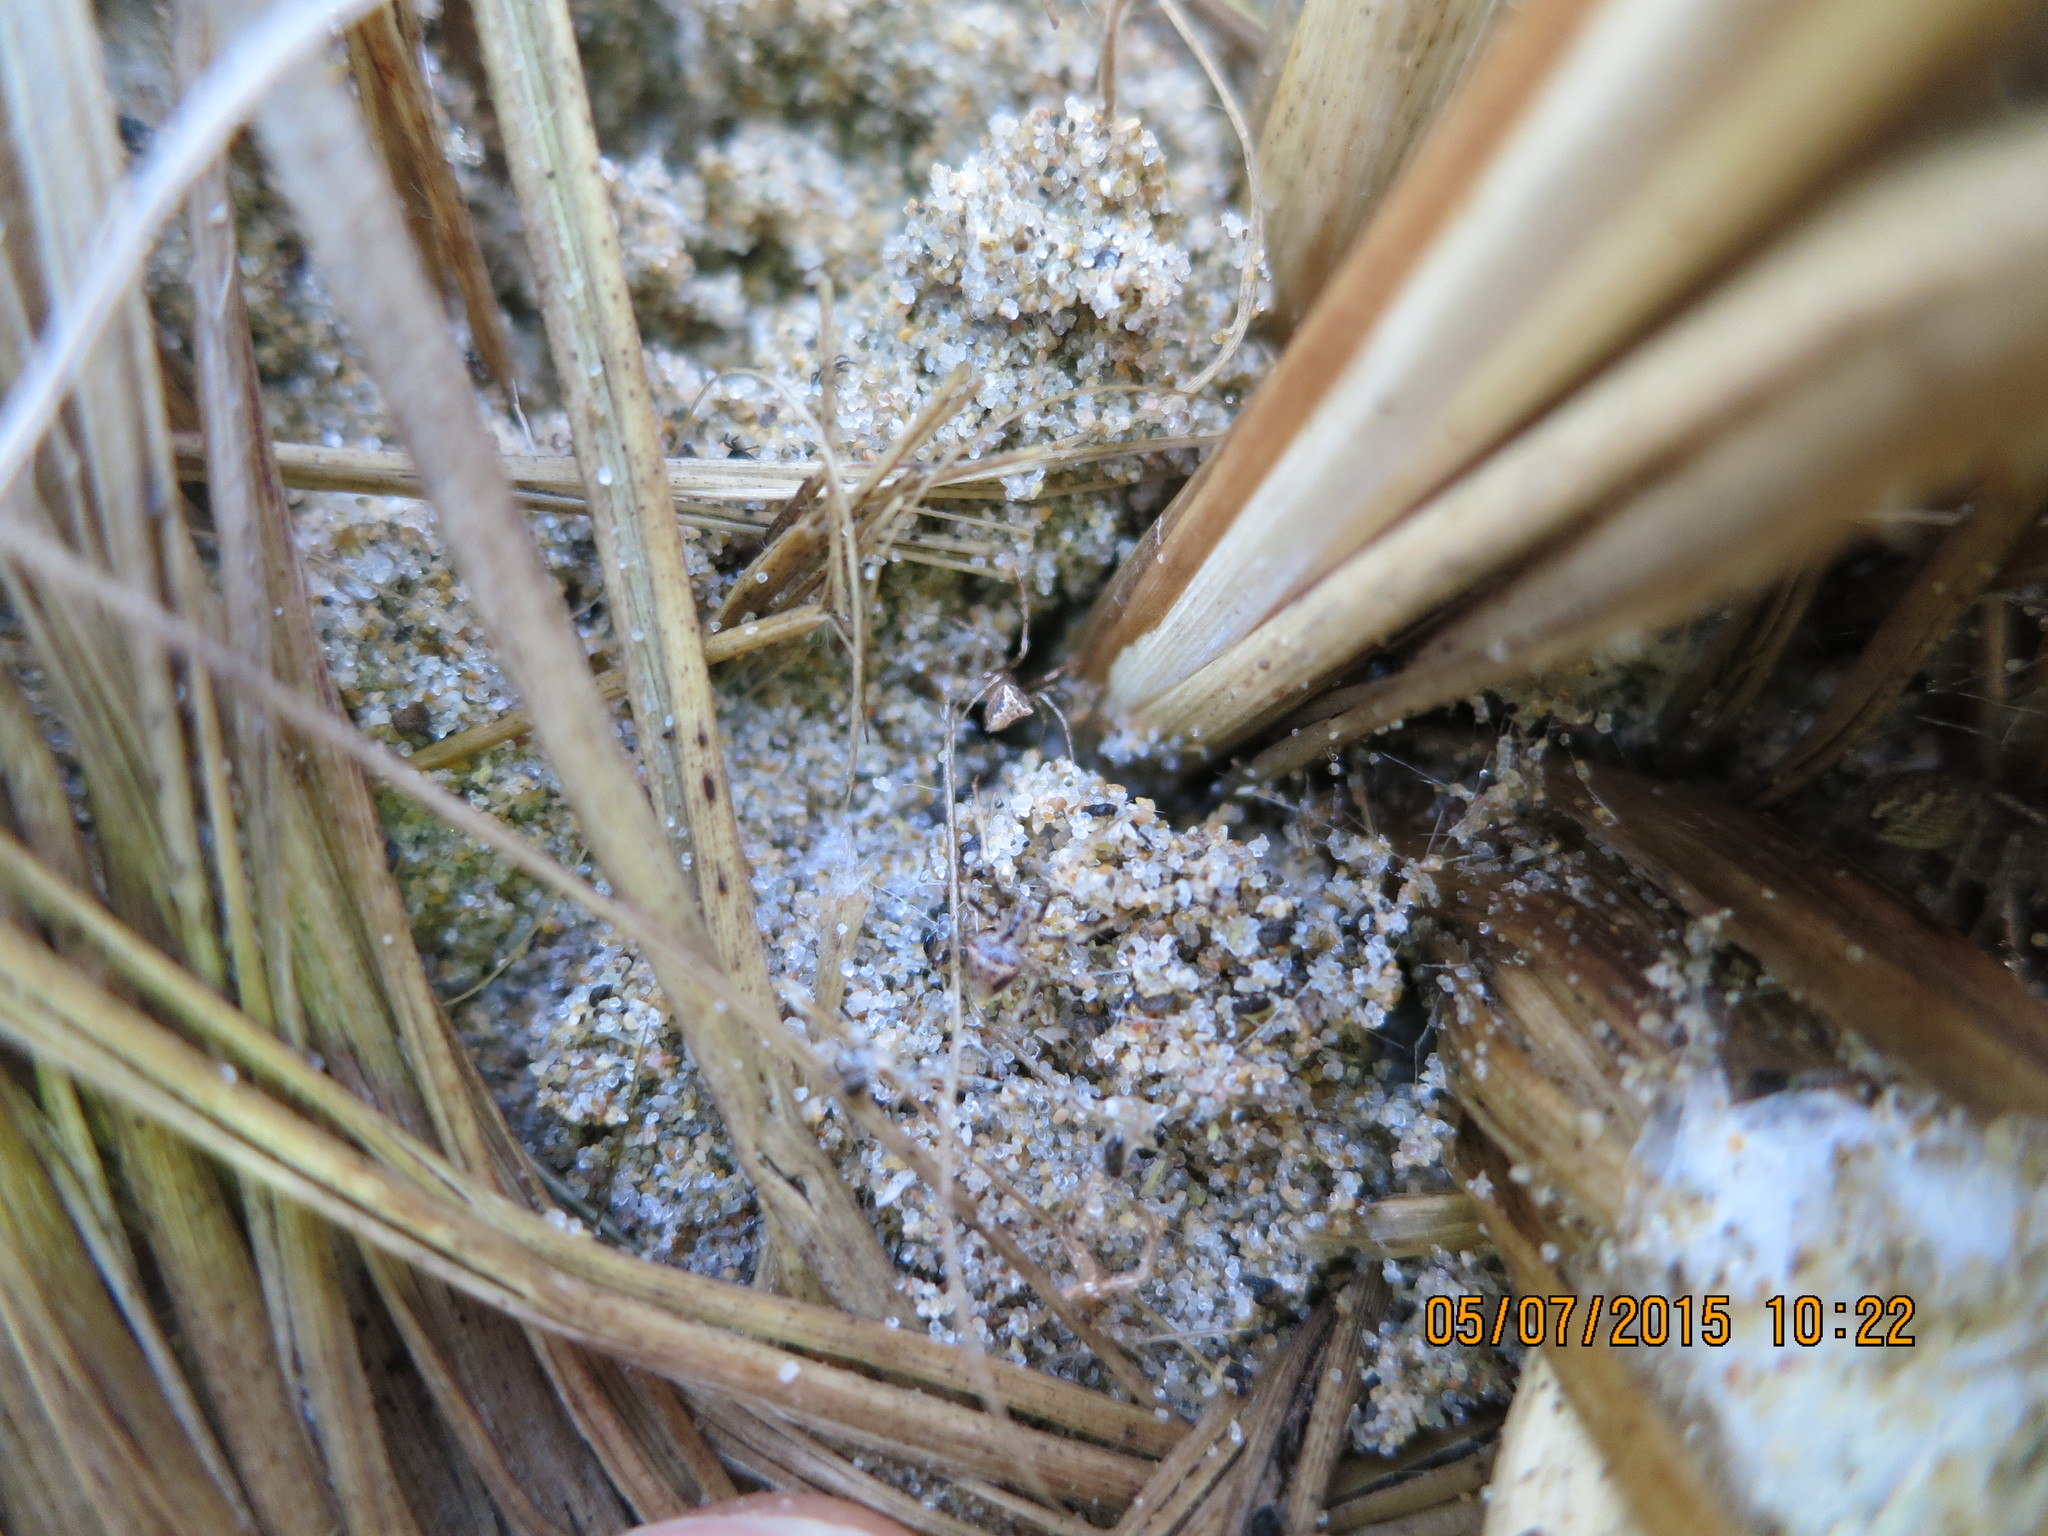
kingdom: Animalia
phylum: Arthropoda
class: Arachnida
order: Araneae
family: Mimetidae
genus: Australomimetus
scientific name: Australomimetus hartleyensis
